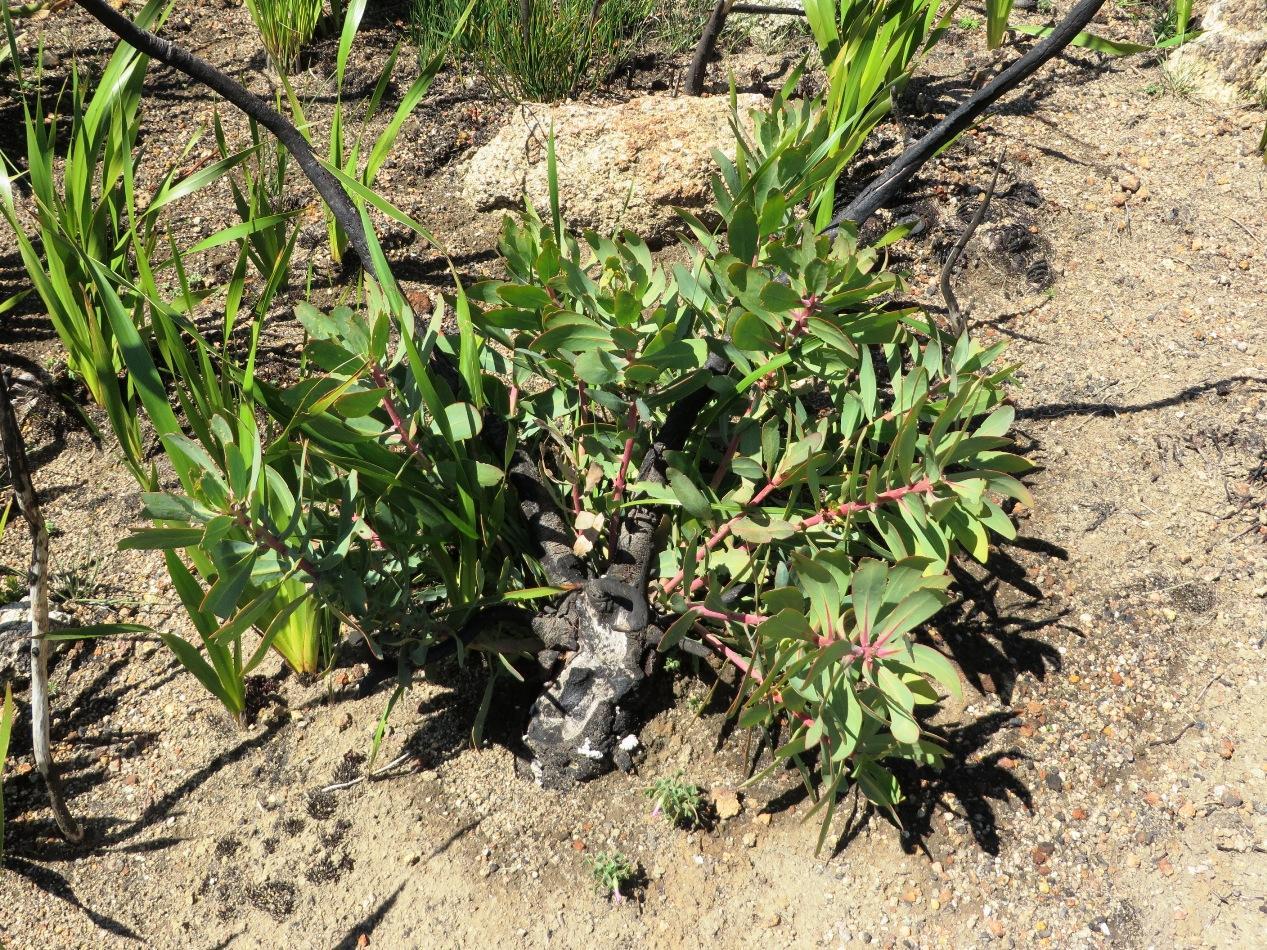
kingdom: Plantae
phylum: Tracheophyta
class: Magnoliopsida
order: Proteales
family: Proteaceae
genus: Protea
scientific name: Protea nitida
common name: Tree protea
